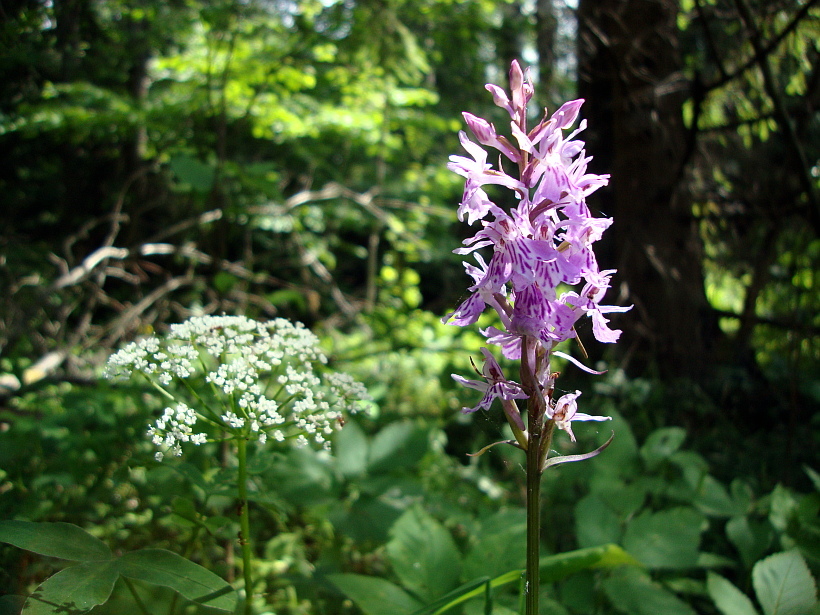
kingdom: Plantae
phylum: Tracheophyta
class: Liliopsida
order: Asparagales
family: Orchidaceae
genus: Dactylorhiza
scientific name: Dactylorhiza maculata
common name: Heath spotted-orchid
